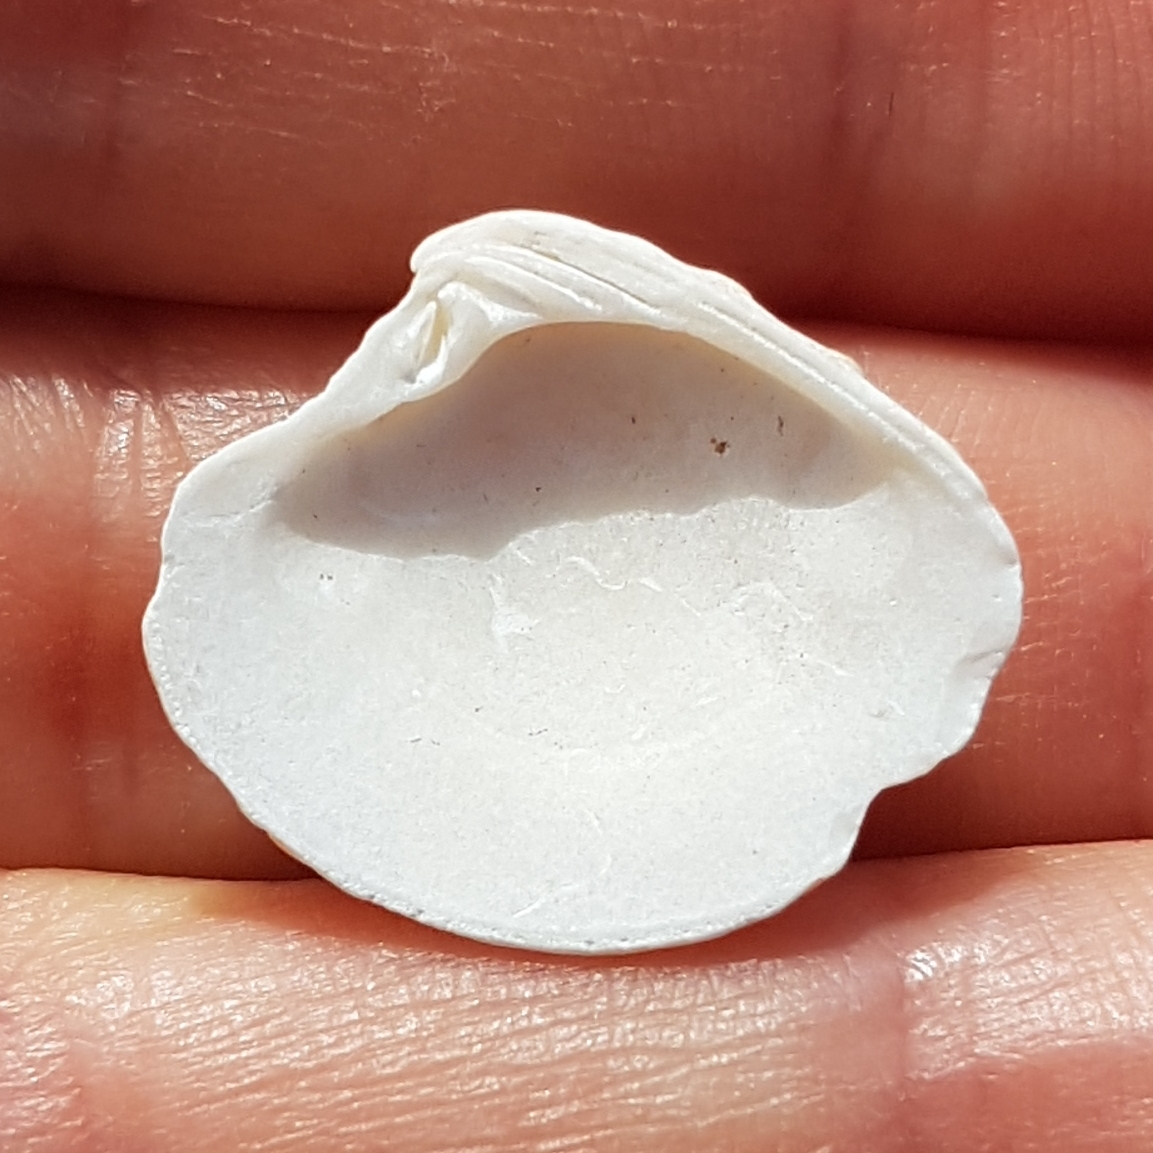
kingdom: Animalia
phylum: Mollusca
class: Bivalvia
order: Venerida
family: Veneridae
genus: Clausinella
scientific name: Clausinella fasciata
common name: Banded venus
